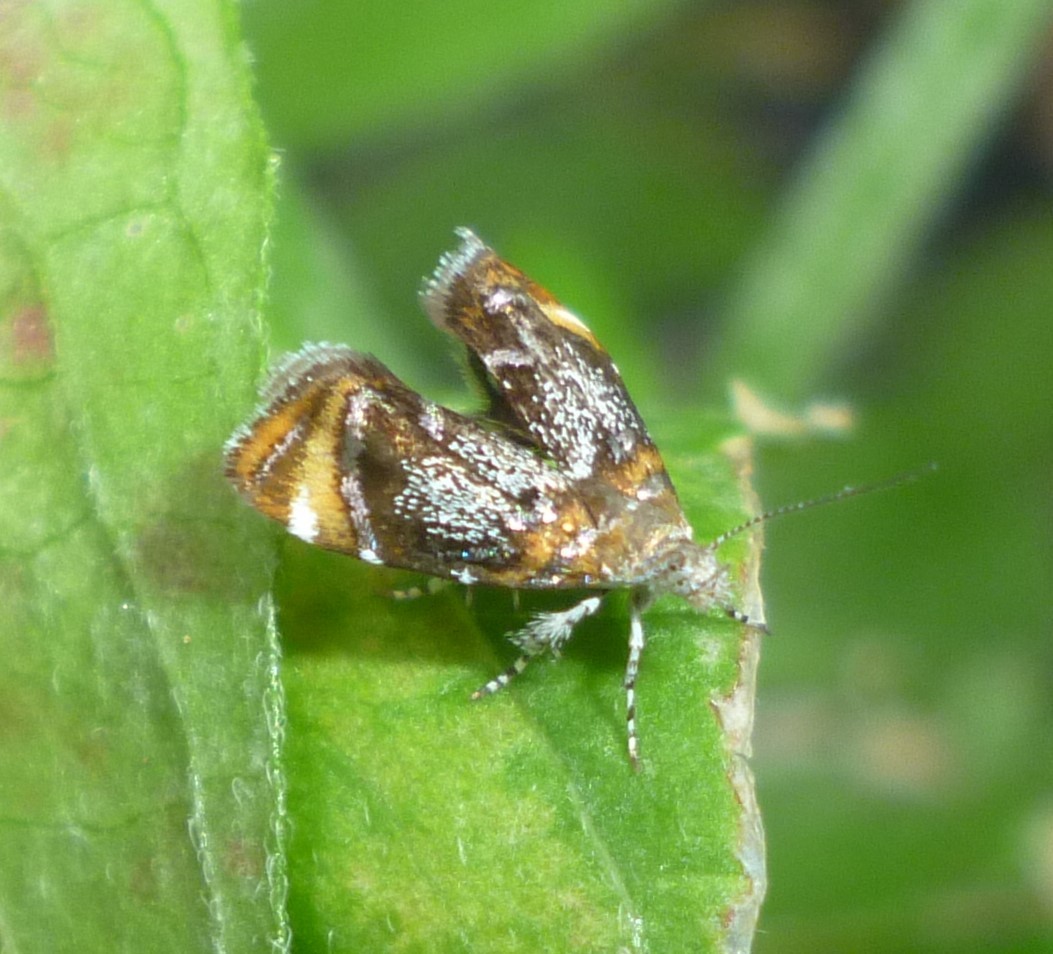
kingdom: Animalia
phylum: Arthropoda
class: Insecta
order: Lepidoptera
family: Choreutidae
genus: Prochoreutis
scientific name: Prochoreutis inflatella
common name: Skullcap skeletonizer moth
